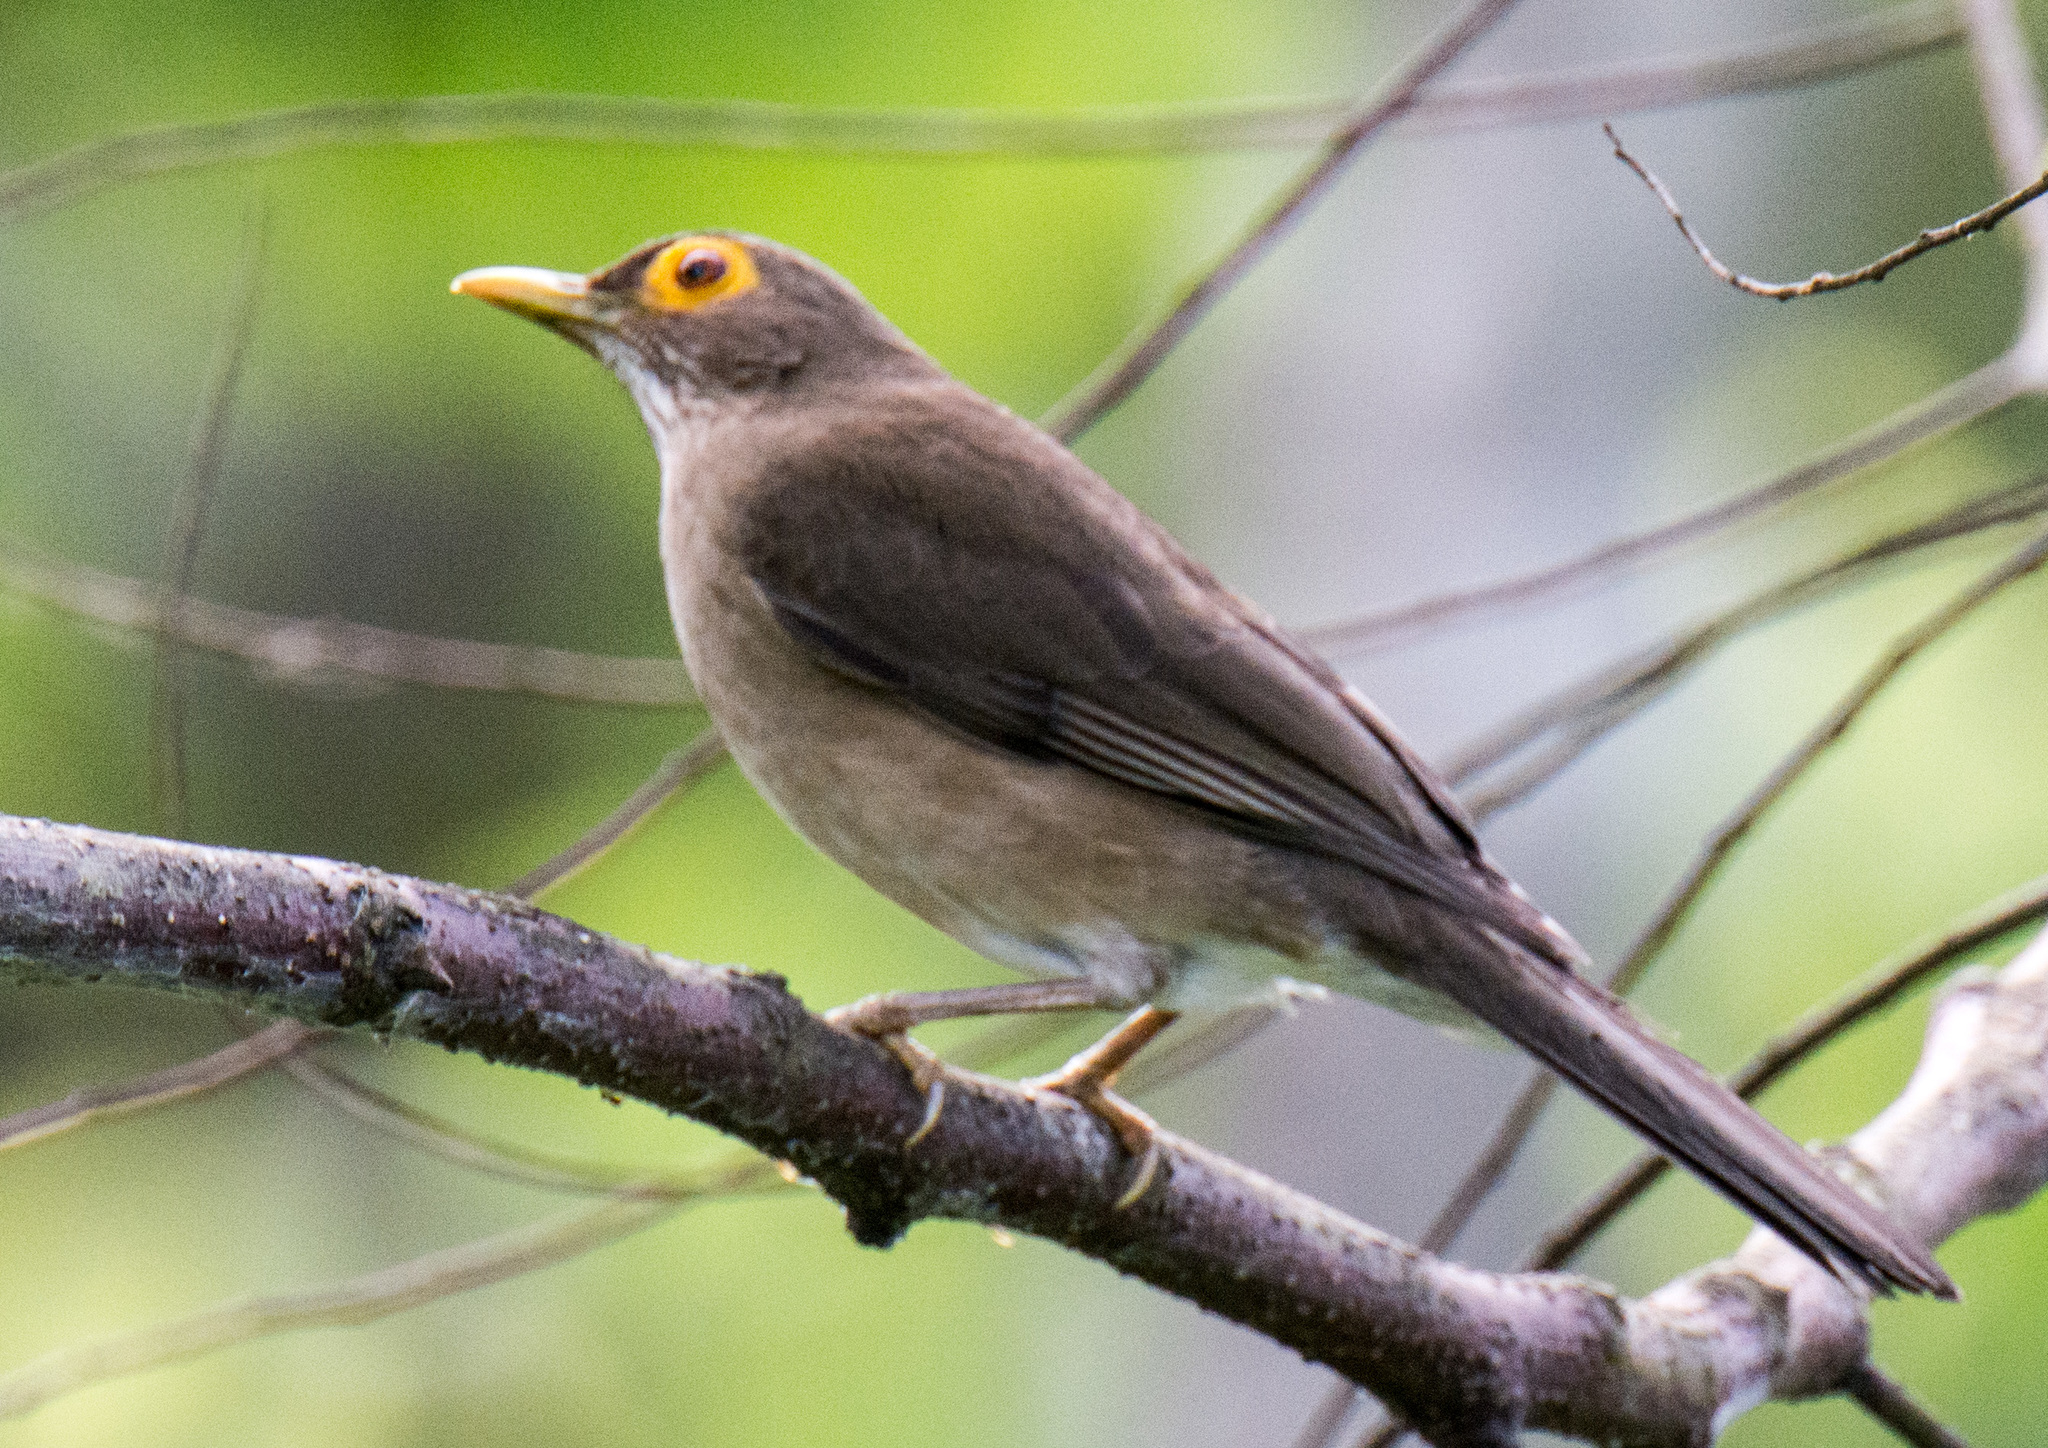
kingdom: Animalia
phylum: Chordata
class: Aves
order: Passeriformes
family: Turdidae
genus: Turdus
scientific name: Turdus nudigenis
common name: Spectacled thrush
